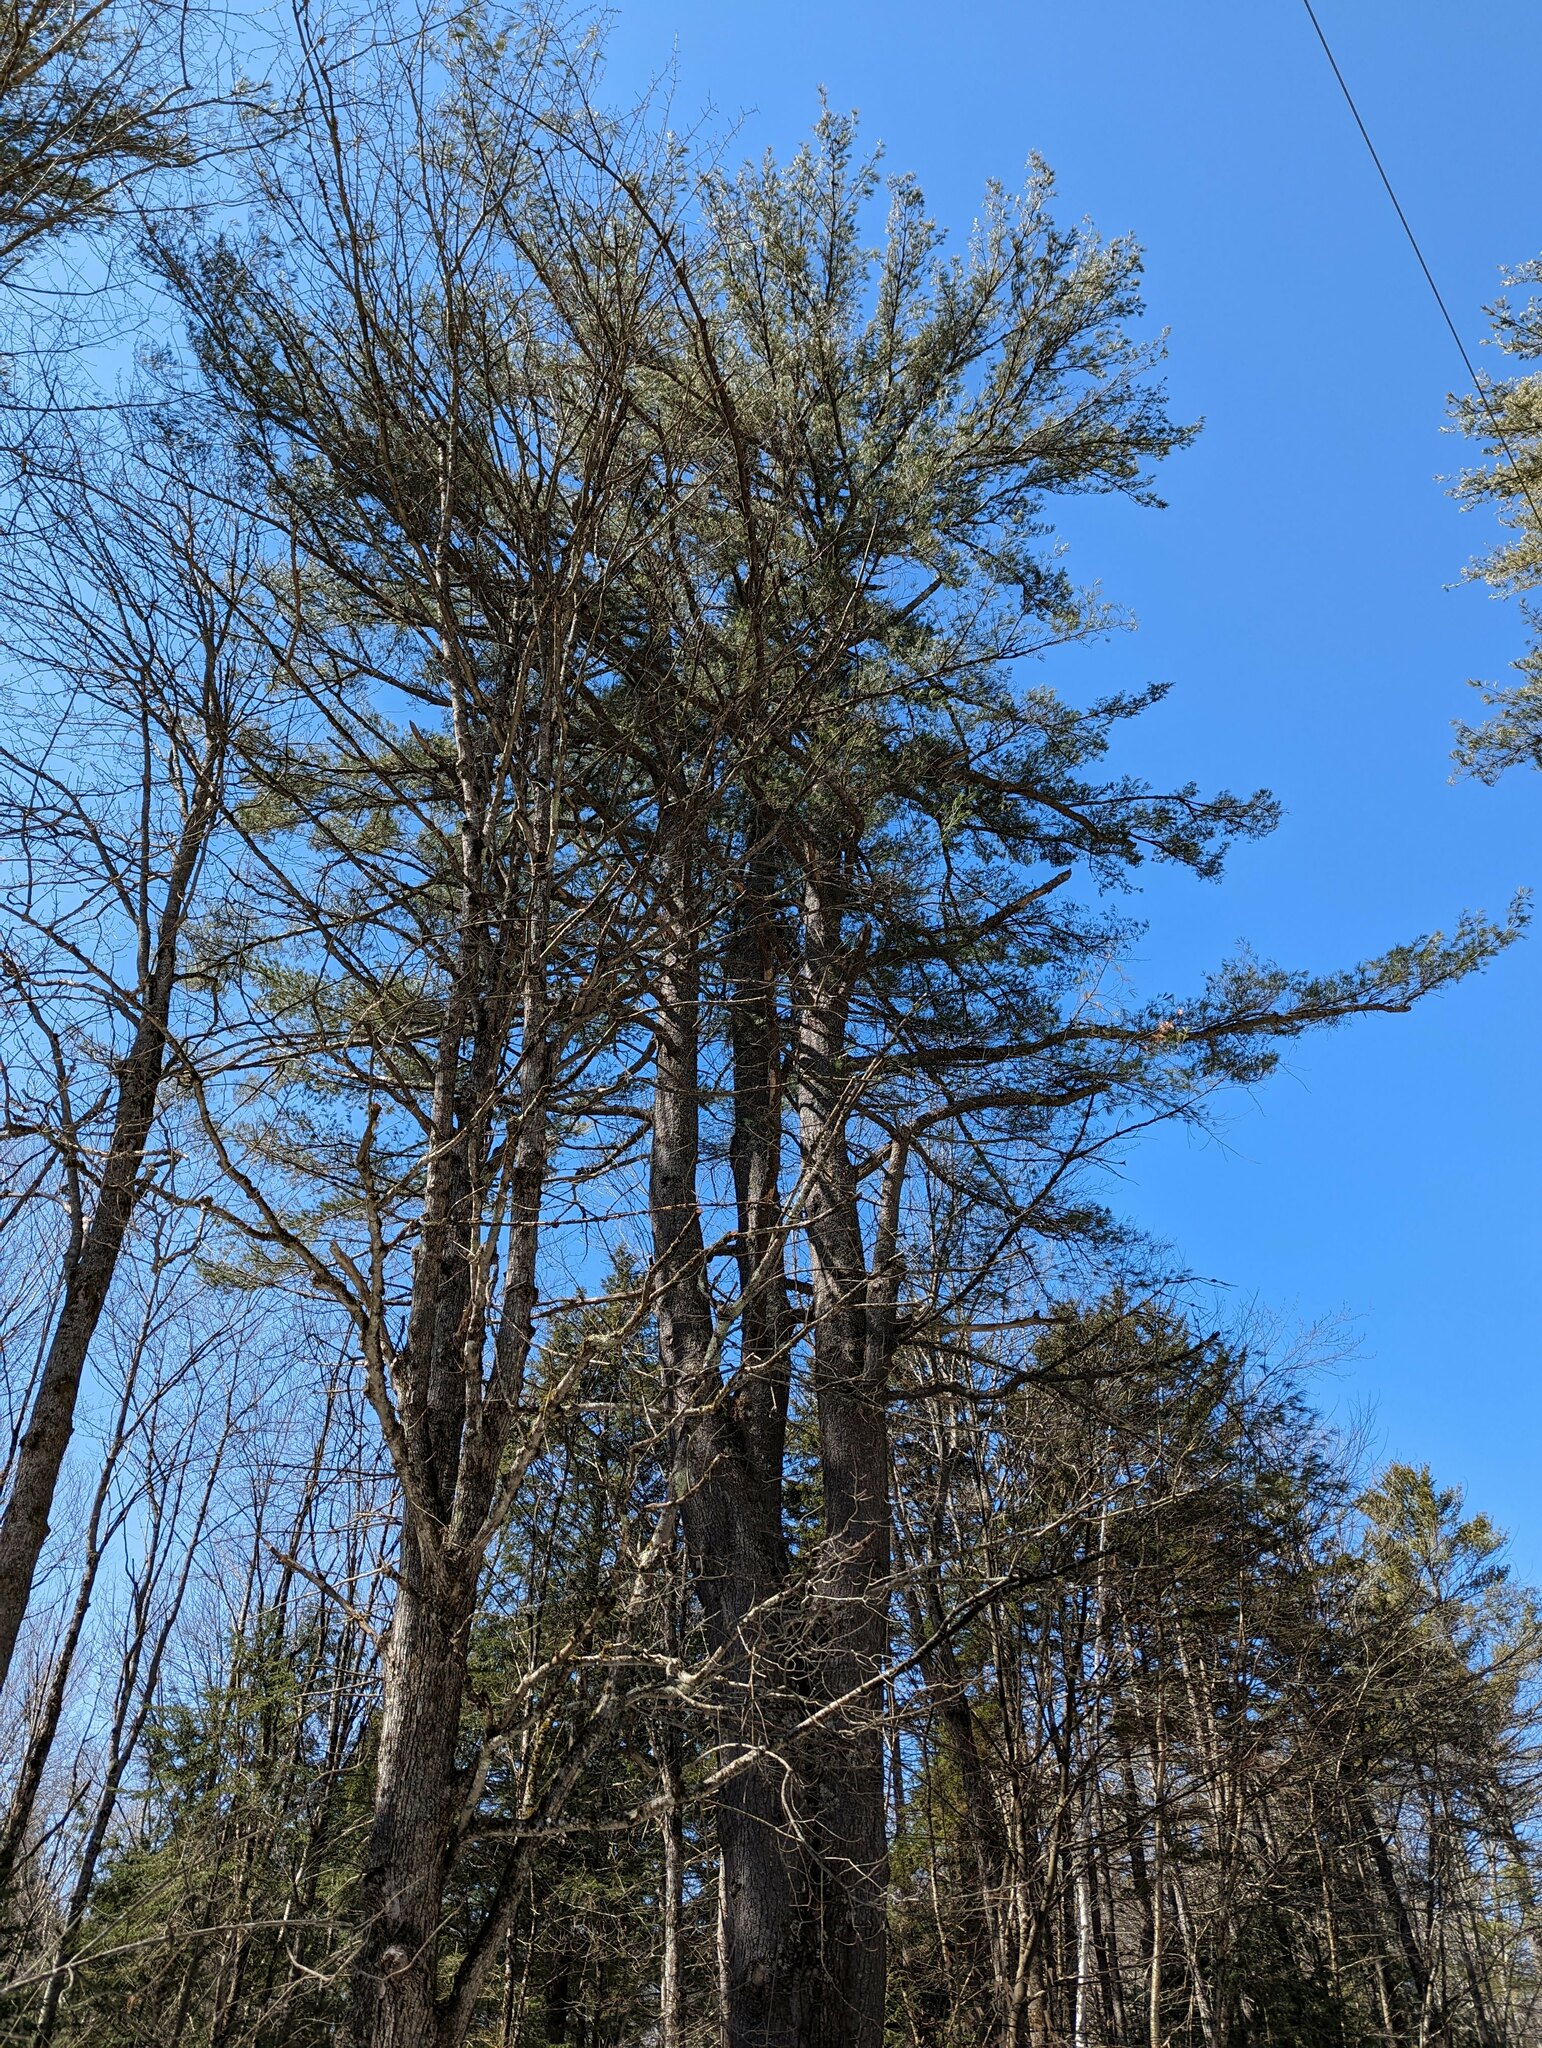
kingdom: Plantae
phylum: Tracheophyta
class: Pinopsida
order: Pinales
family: Pinaceae
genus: Pinus
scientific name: Pinus strobus
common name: Weymouth pine
